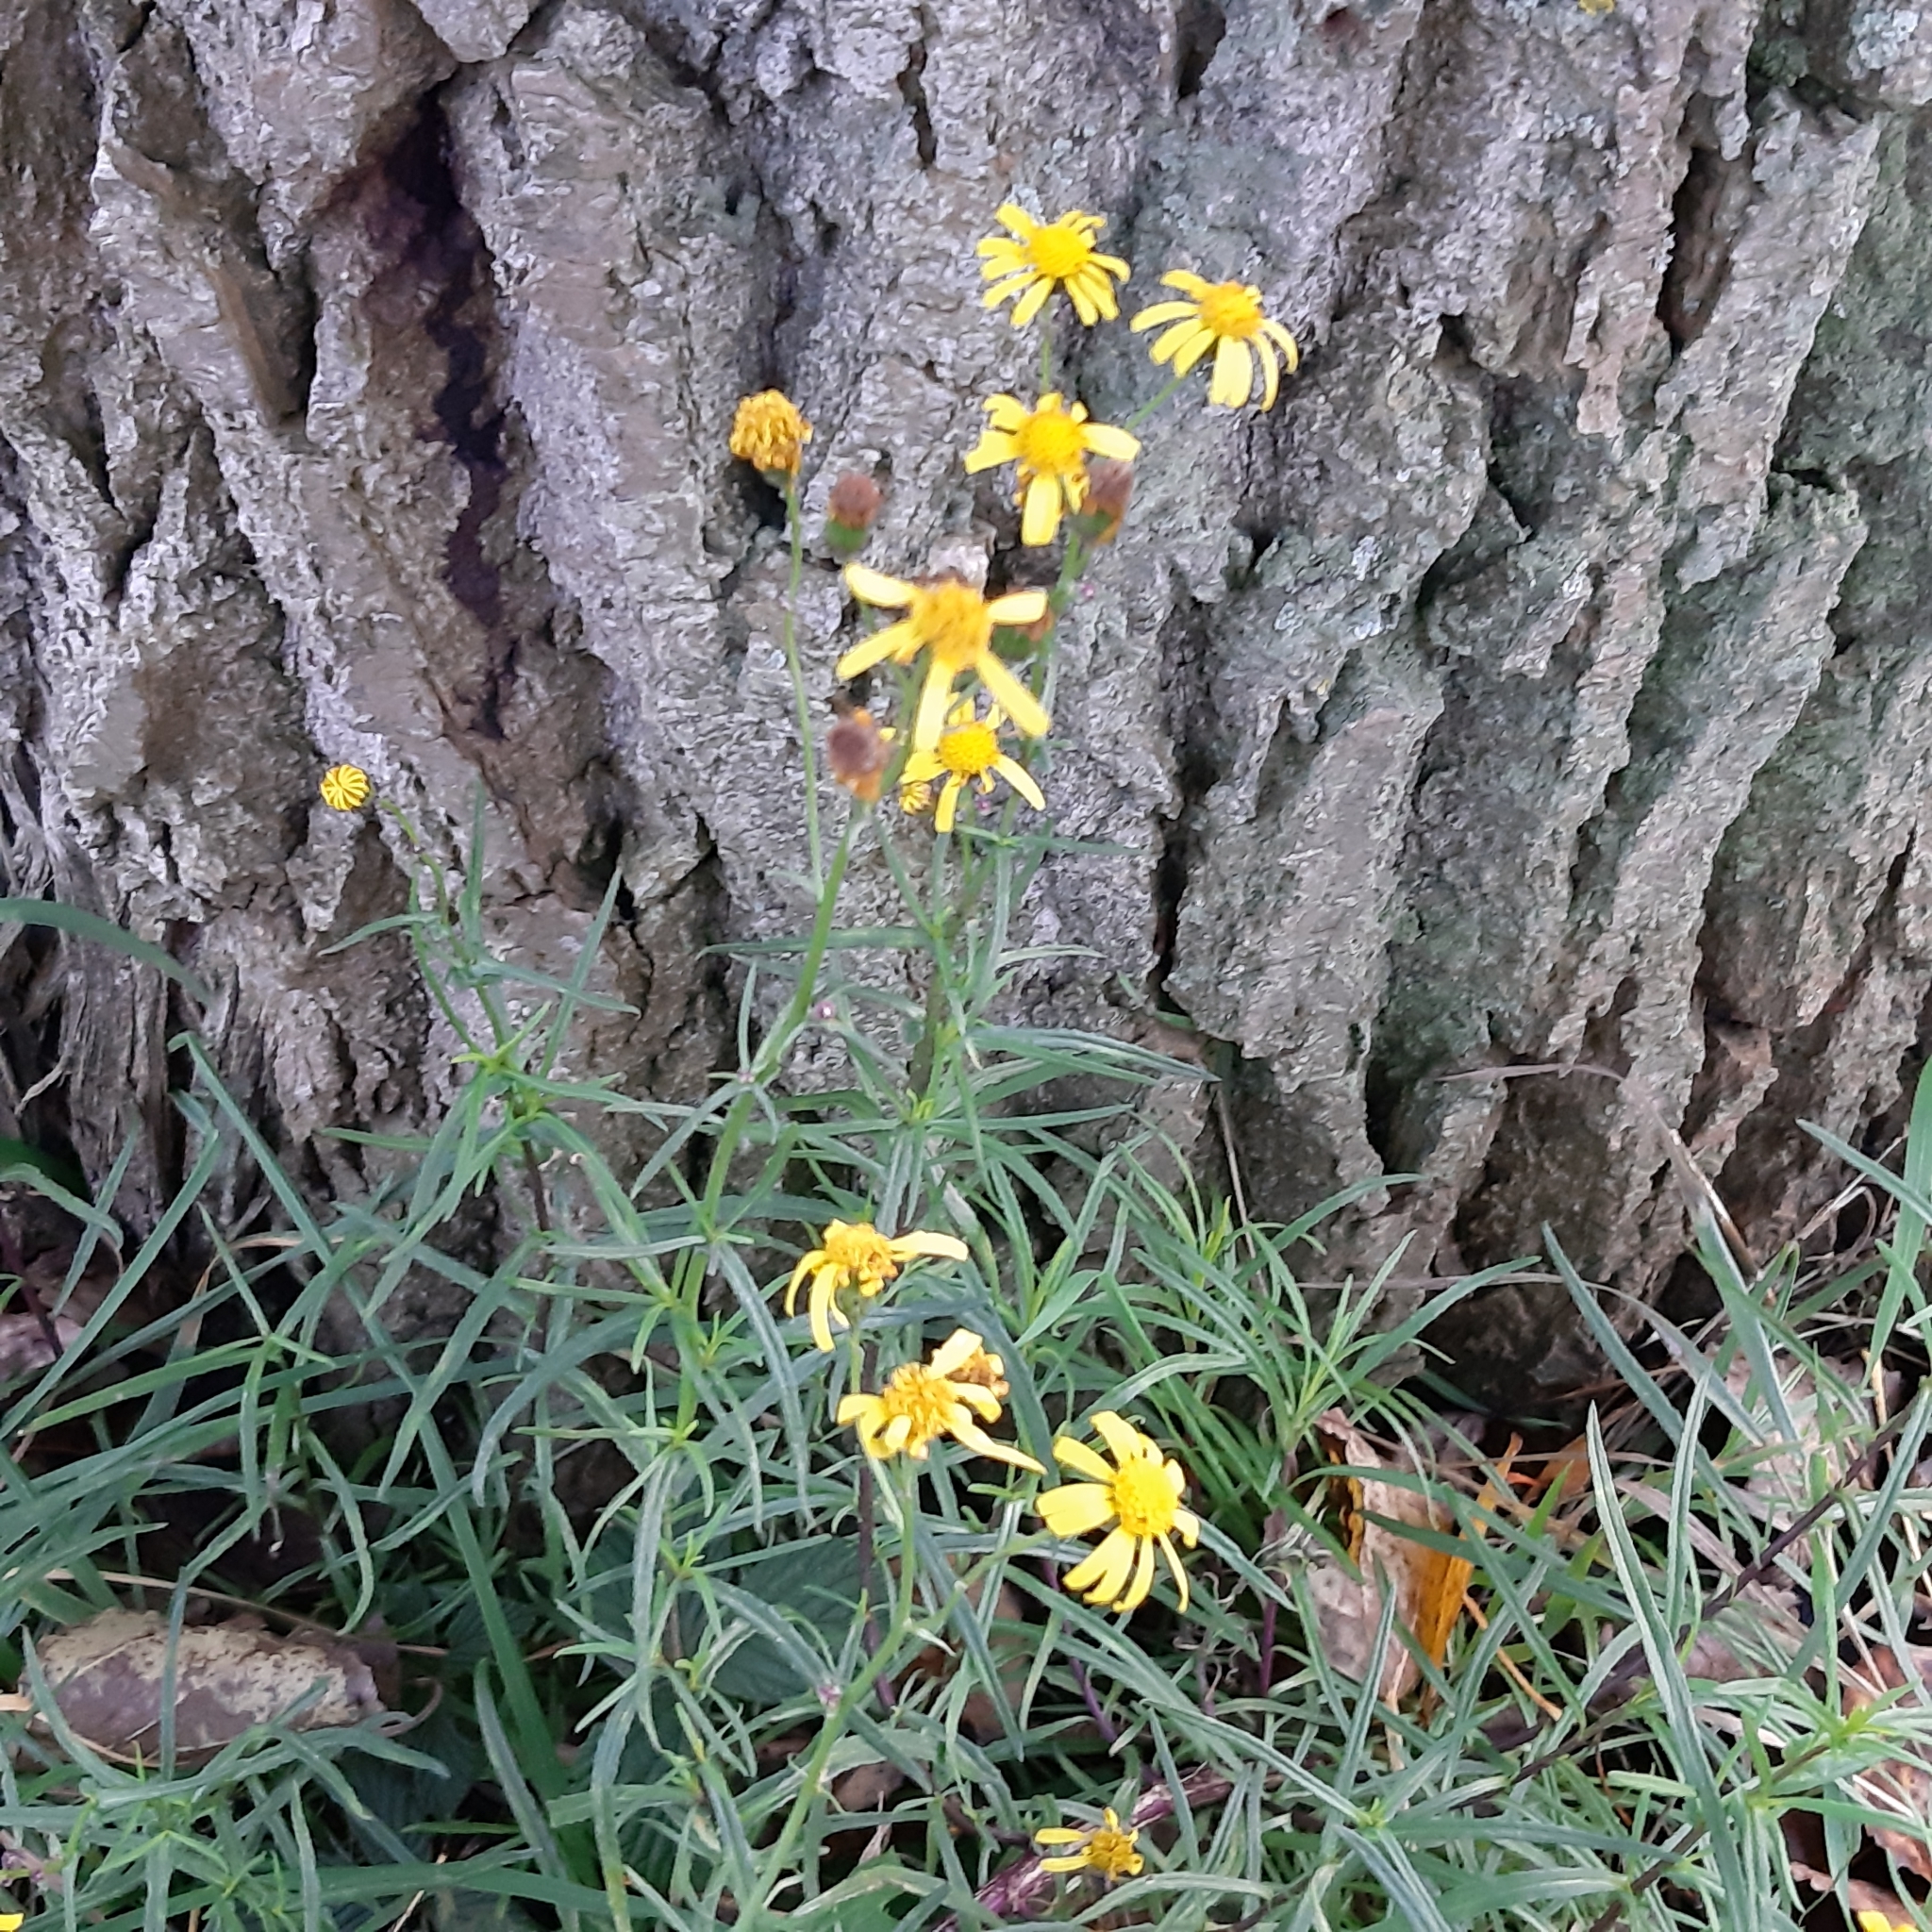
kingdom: Plantae
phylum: Tracheophyta
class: Magnoliopsida
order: Asterales
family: Asteraceae
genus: Senecio
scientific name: Senecio inaequidens
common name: Narrow-leaved ragwort
